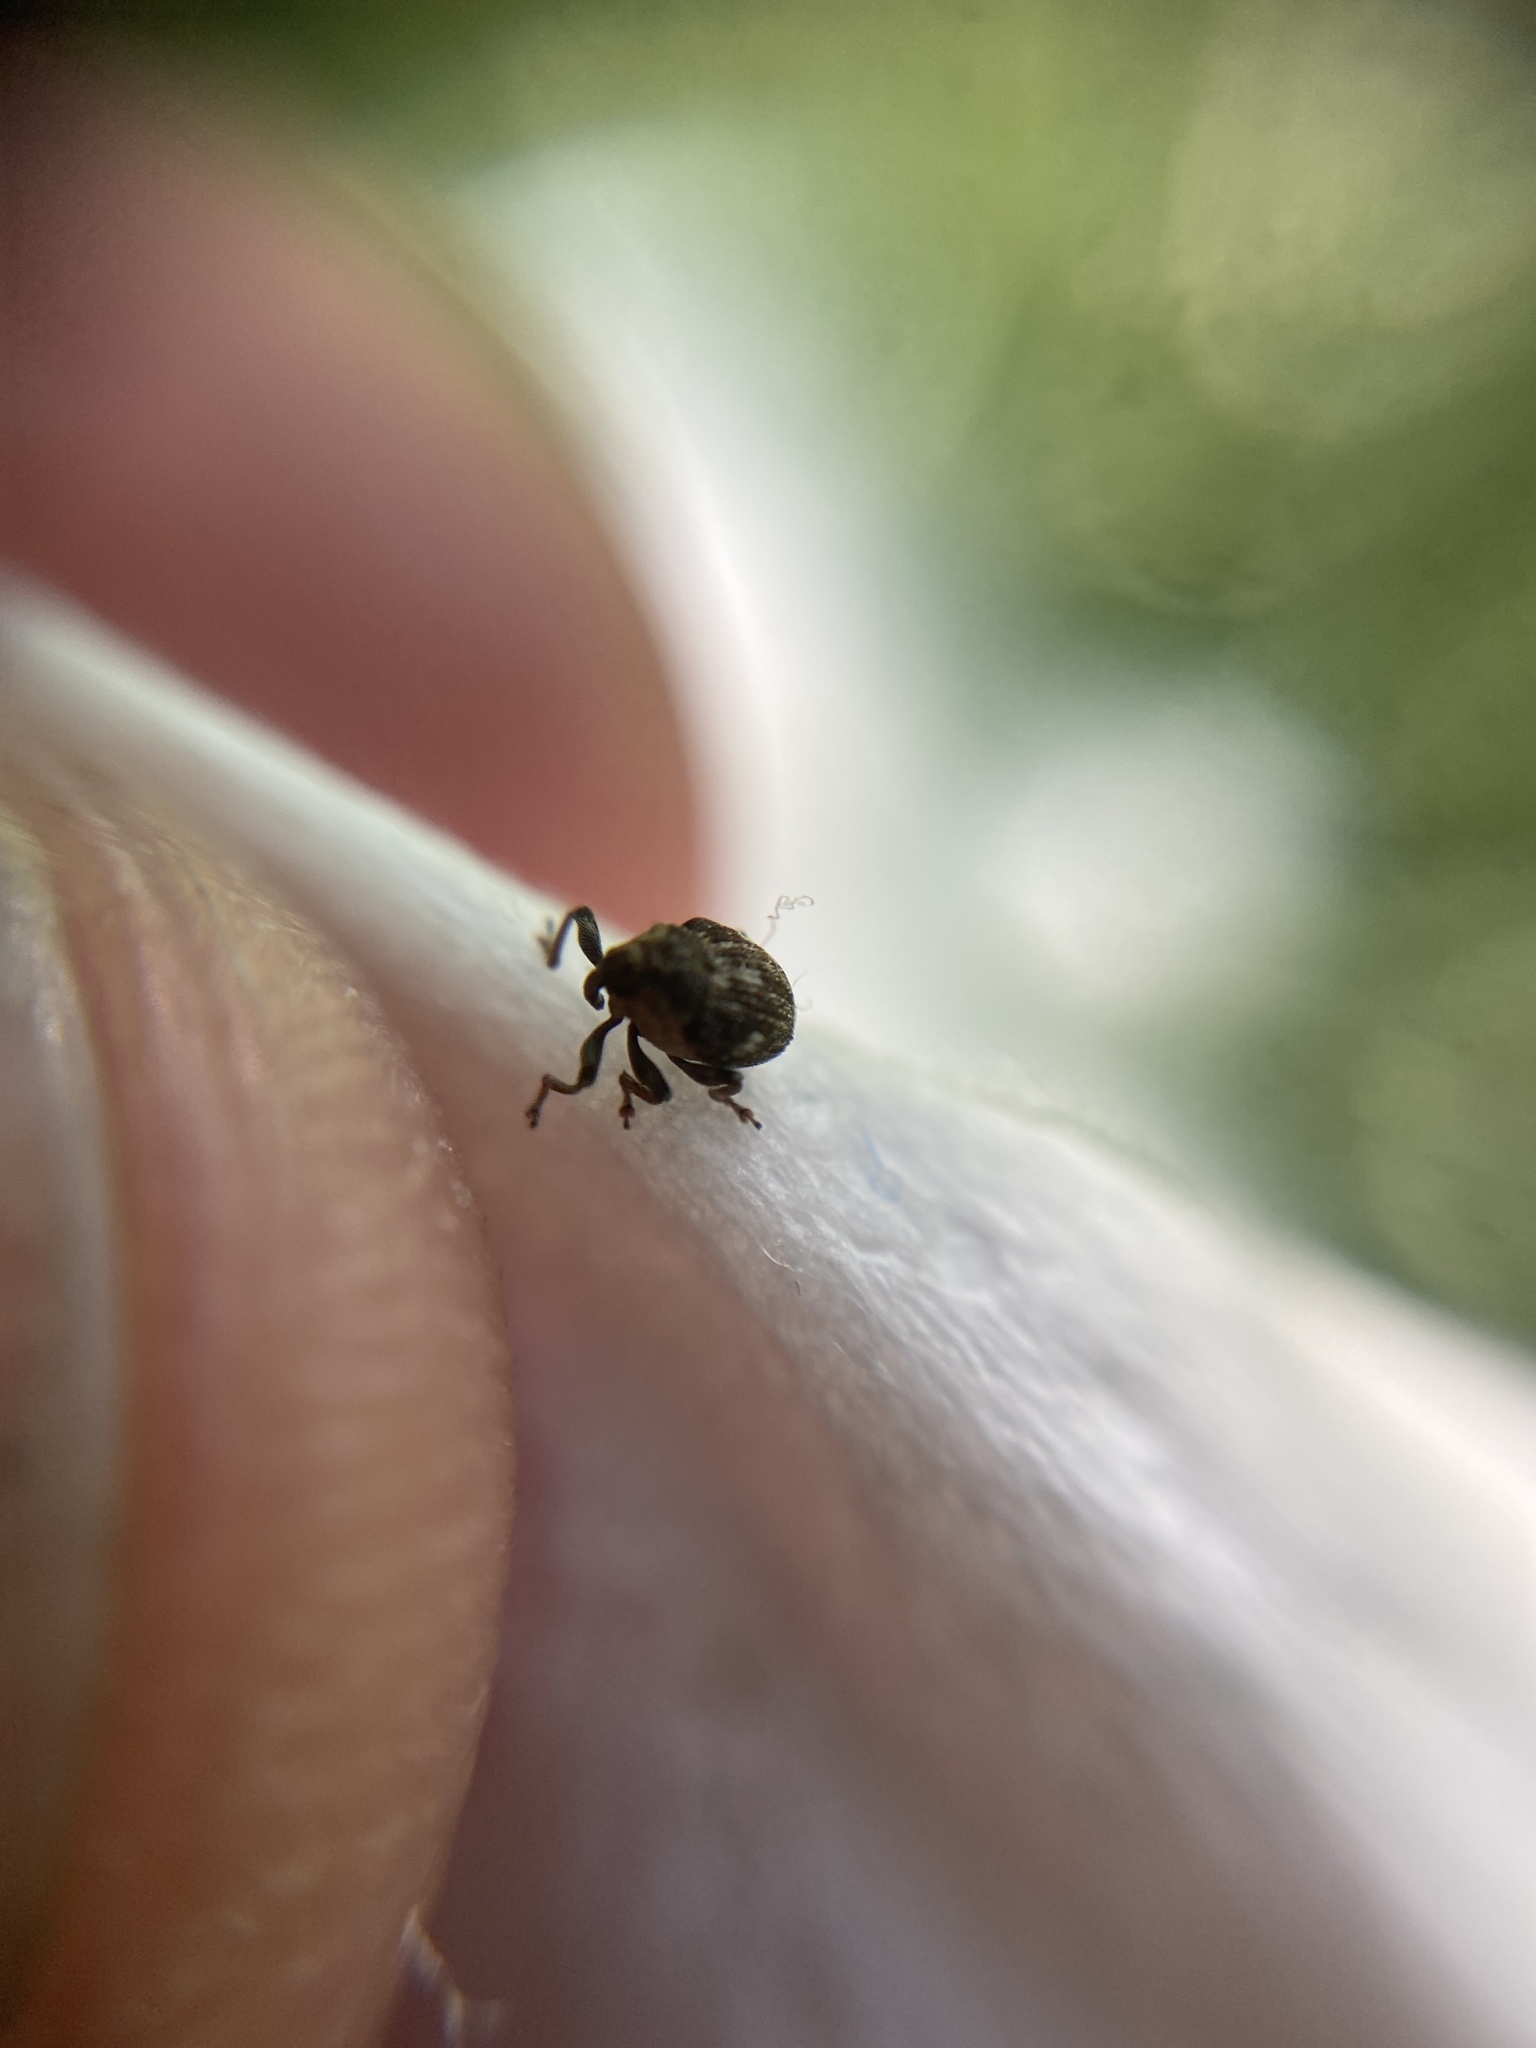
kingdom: Animalia
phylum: Arthropoda
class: Insecta
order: Coleoptera
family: Curculionidae
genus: Nedyus
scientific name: Nedyus quadrimaculatus
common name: Small nettle weevil
